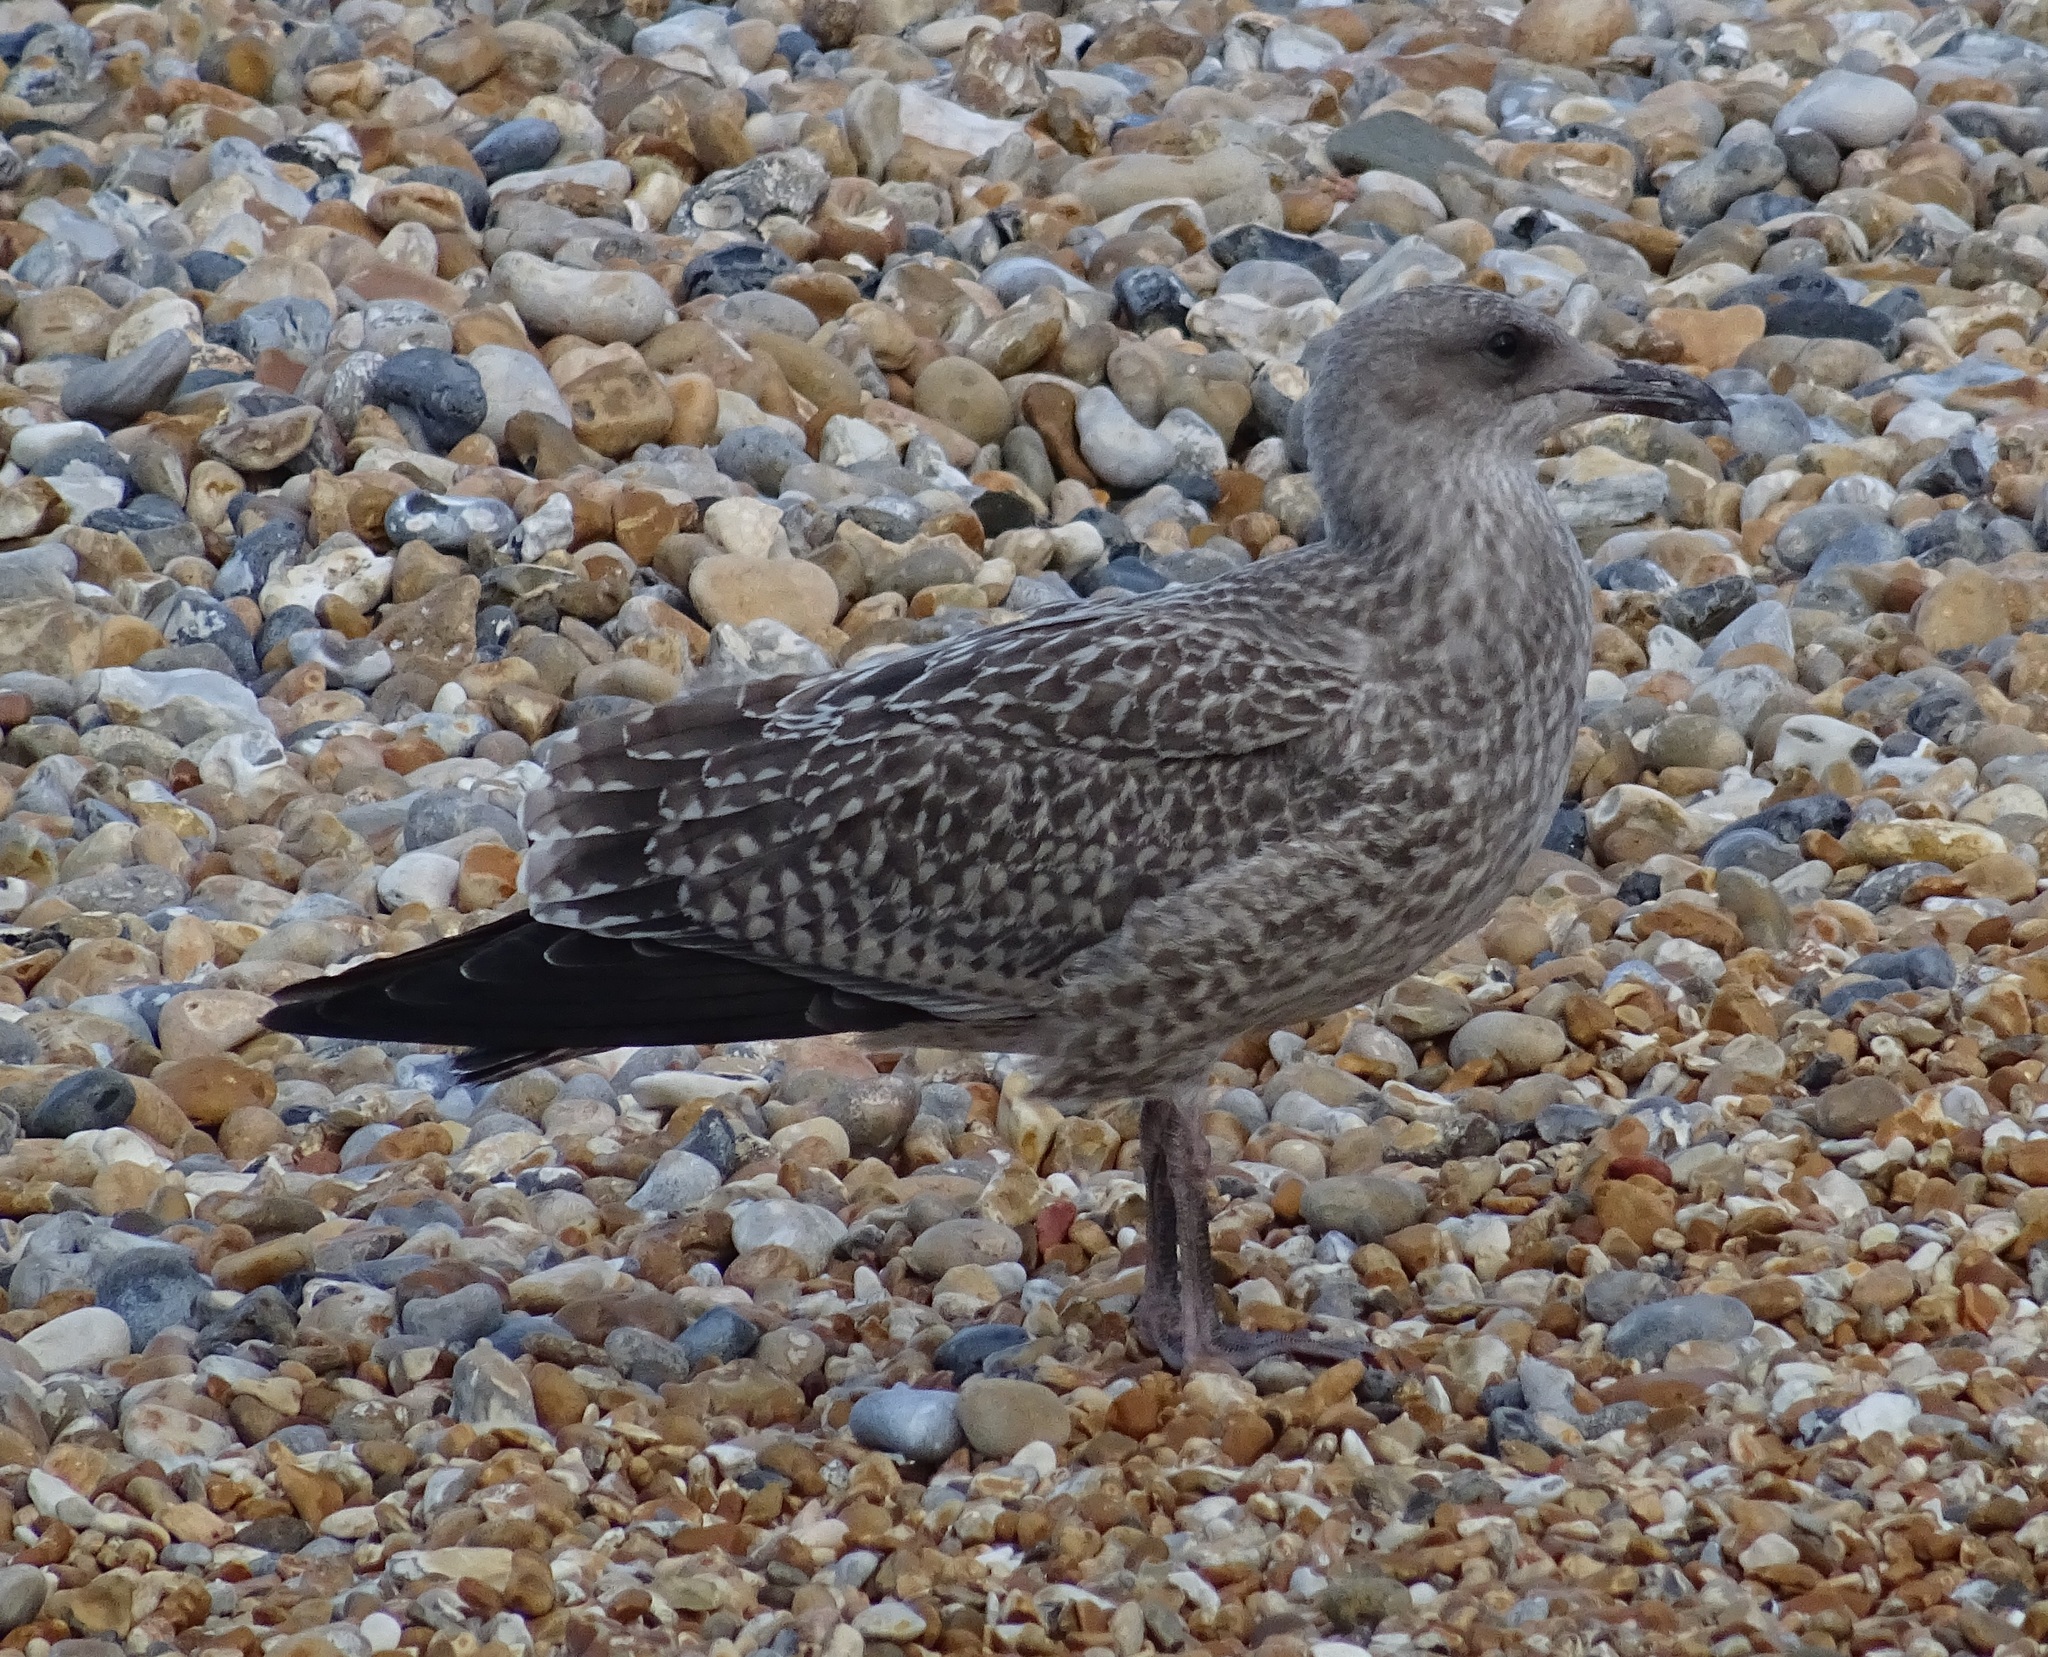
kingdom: Animalia
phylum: Chordata
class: Aves
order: Charadriiformes
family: Laridae
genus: Larus
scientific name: Larus argentatus
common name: Herring gull
